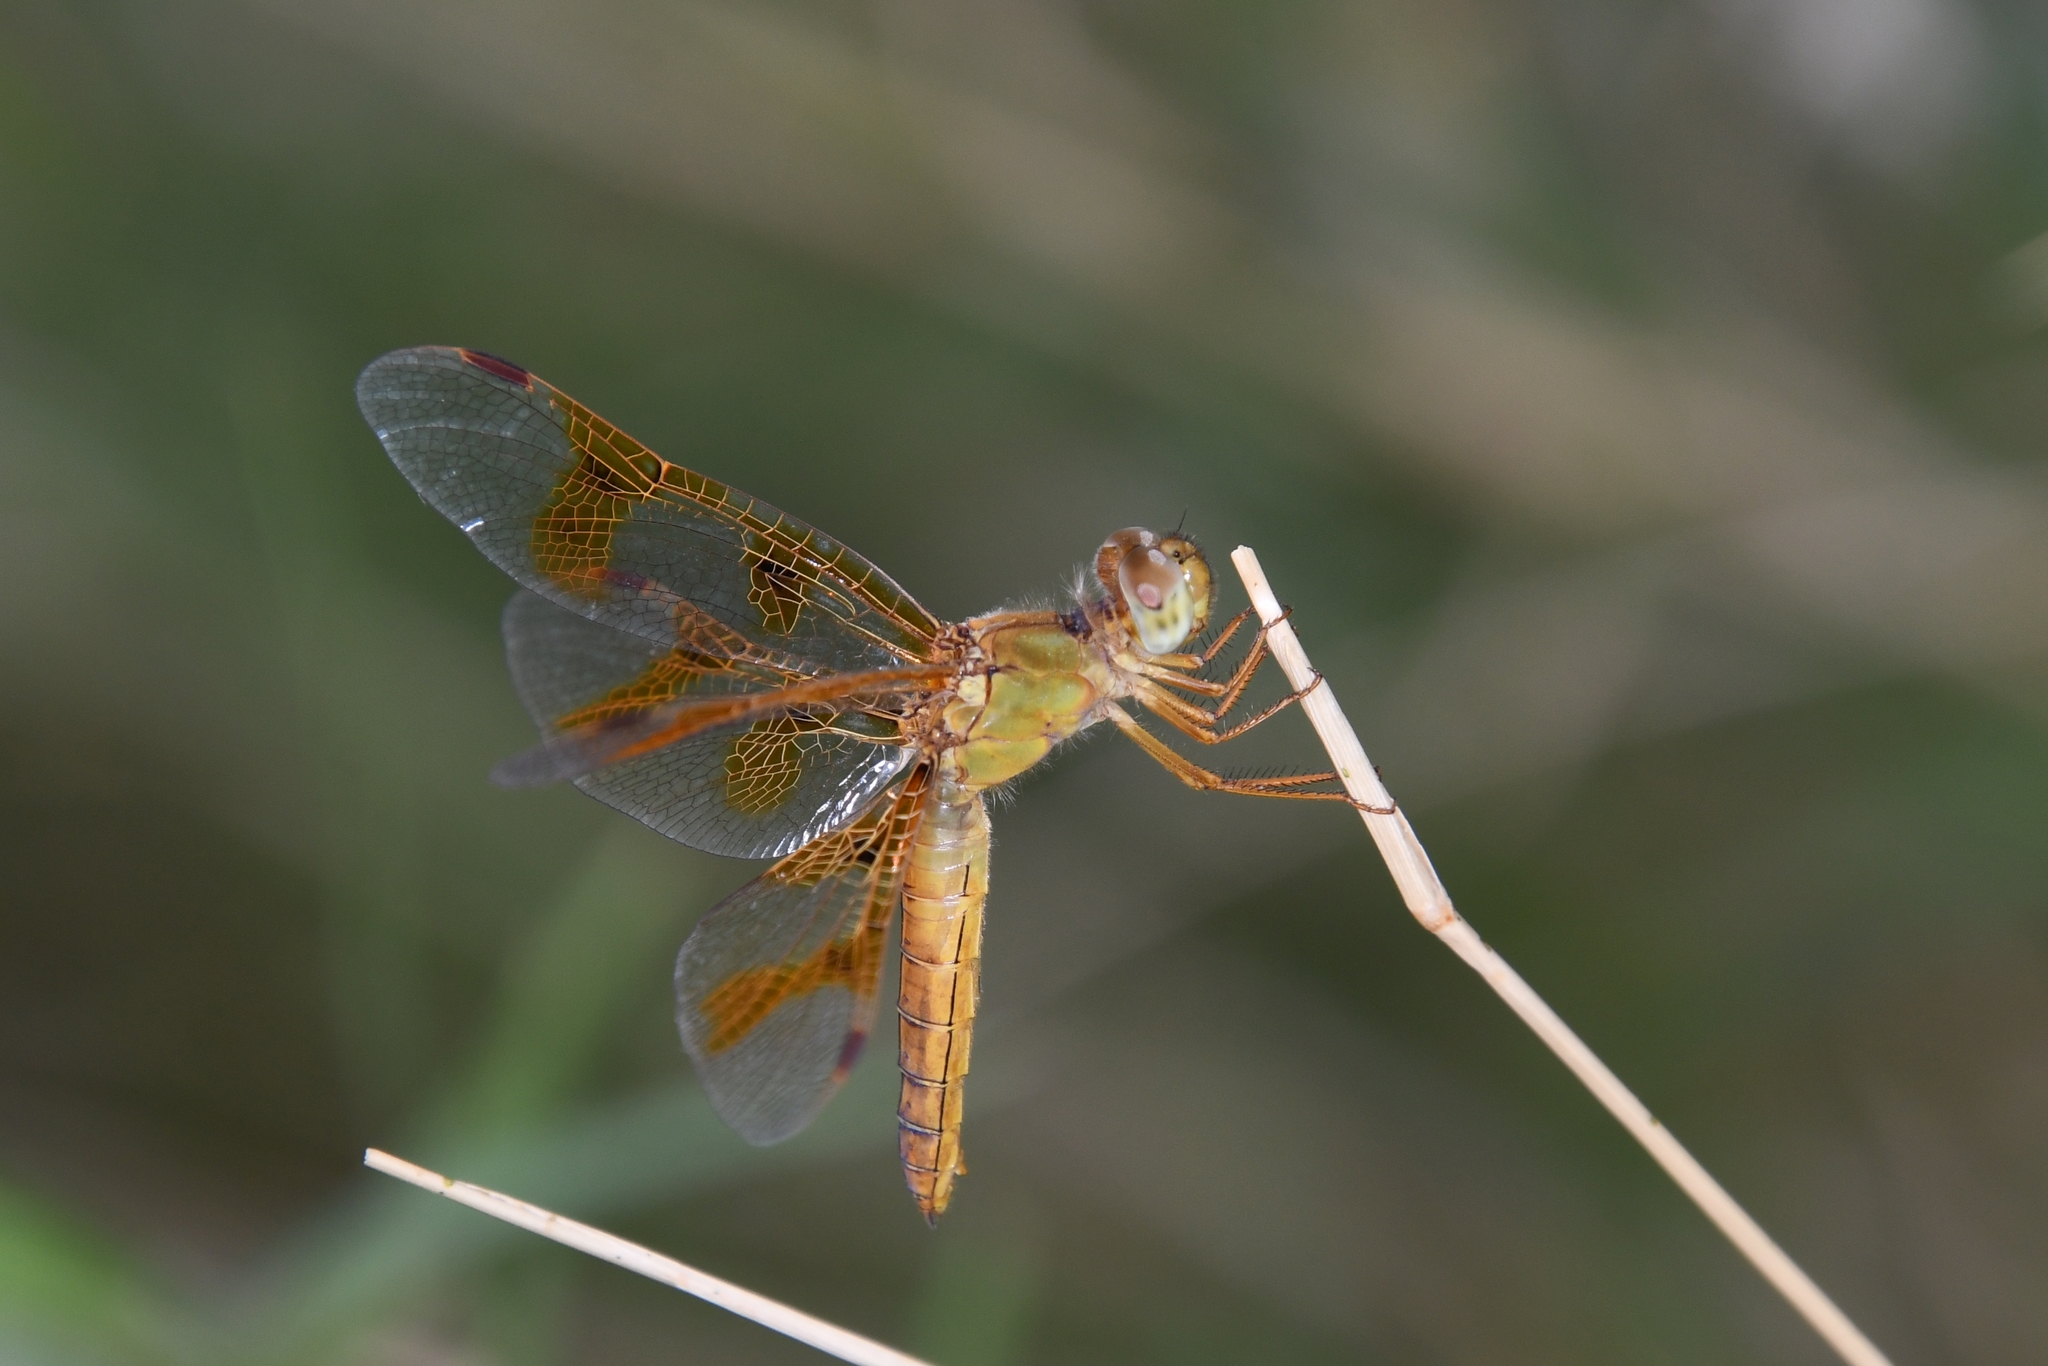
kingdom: Animalia
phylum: Arthropoda
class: Insecta
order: Odonata
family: Libellulidae
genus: Perithemis
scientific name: Perithemis intensa
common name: Mexican amberwing
